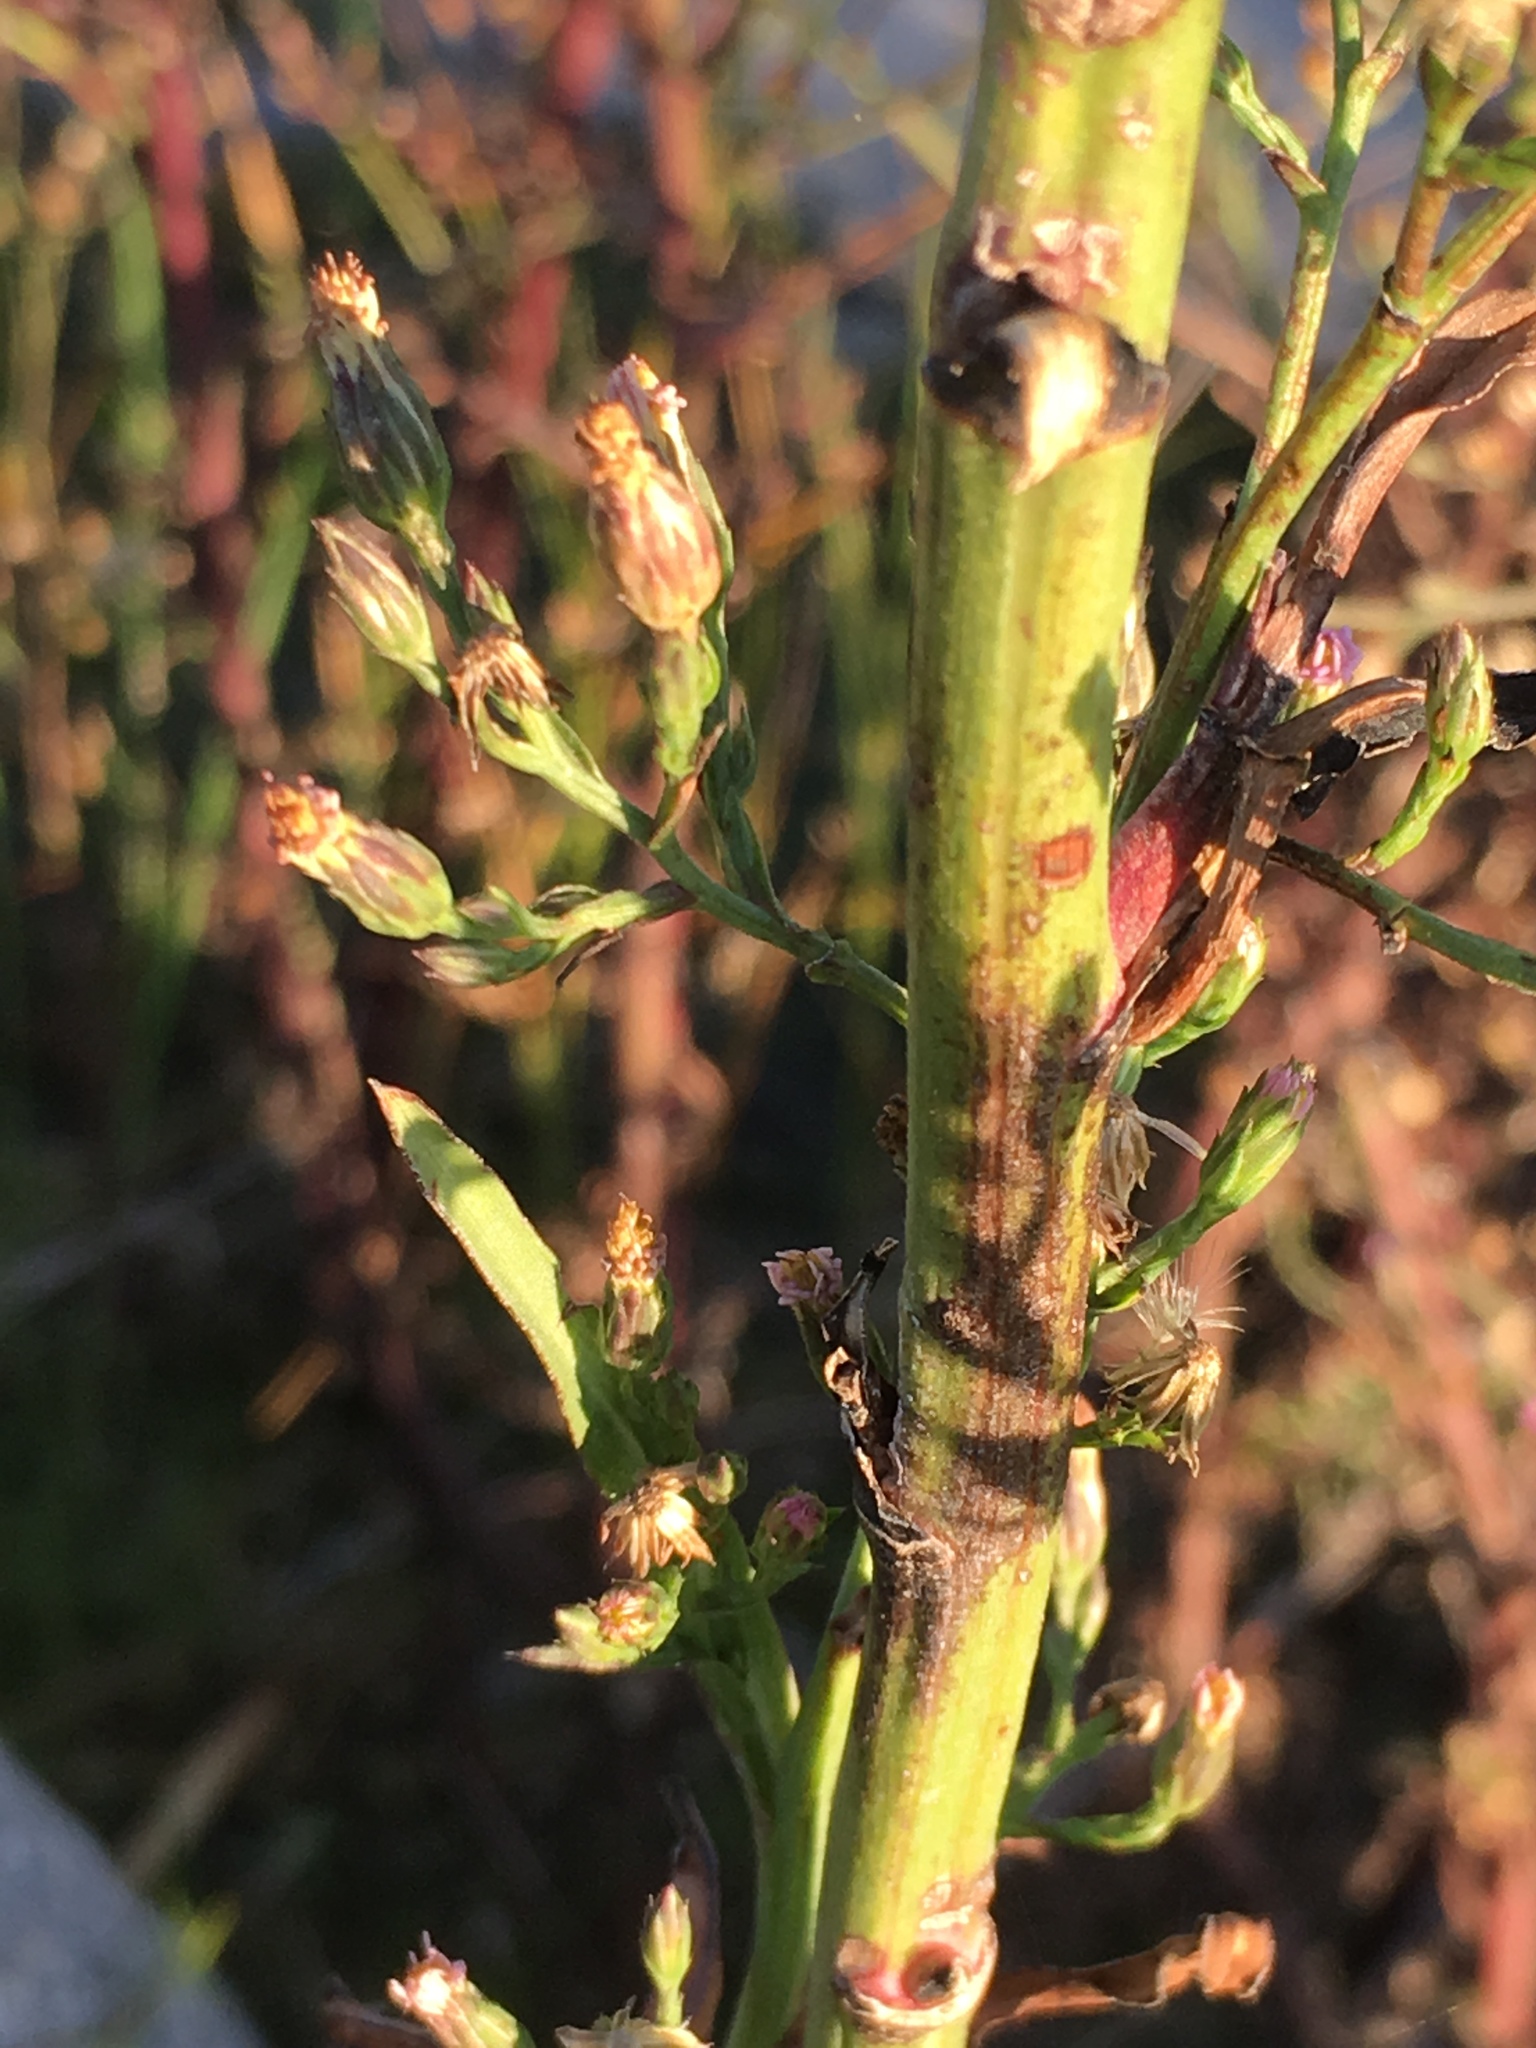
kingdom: Plantae
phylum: Tracheophyta
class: Magnoliopsida
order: Asterales
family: Asteraceae
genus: Symphyotrichum
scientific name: Symphyotrichum subulatum
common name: Annual saltmarsh aster
